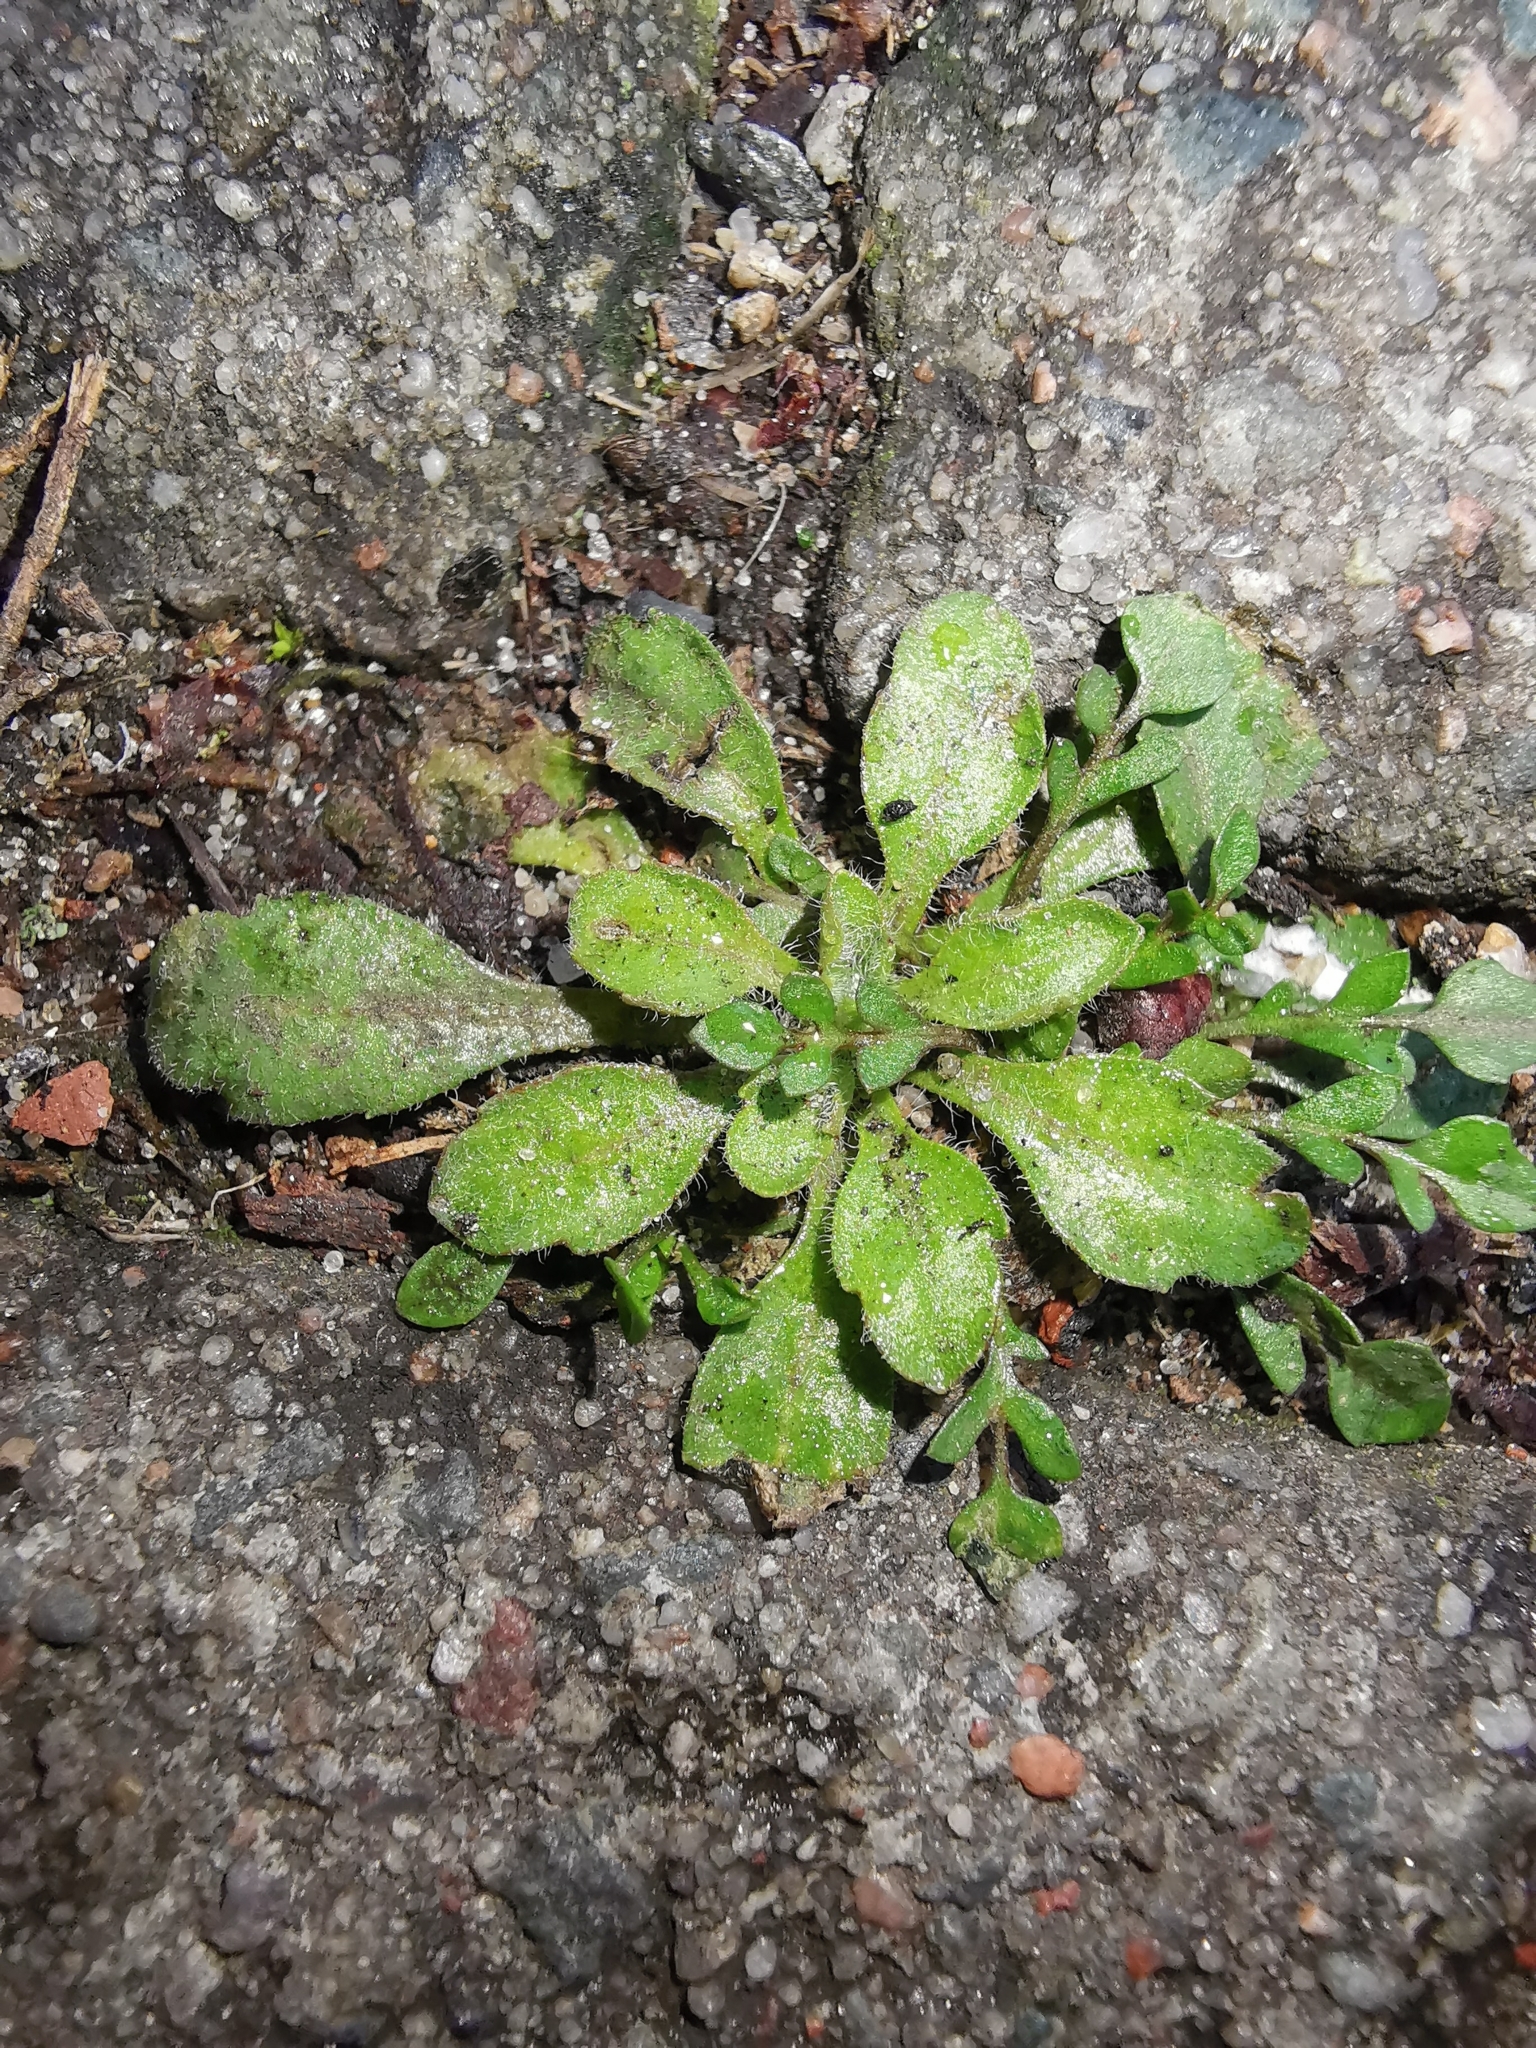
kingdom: Plantae
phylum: Tracheophyta
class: Magnoliopsida
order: Asterales
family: Asteraceae
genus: Erigeron
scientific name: Erigeron canadensis
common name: Canadian fleabane
